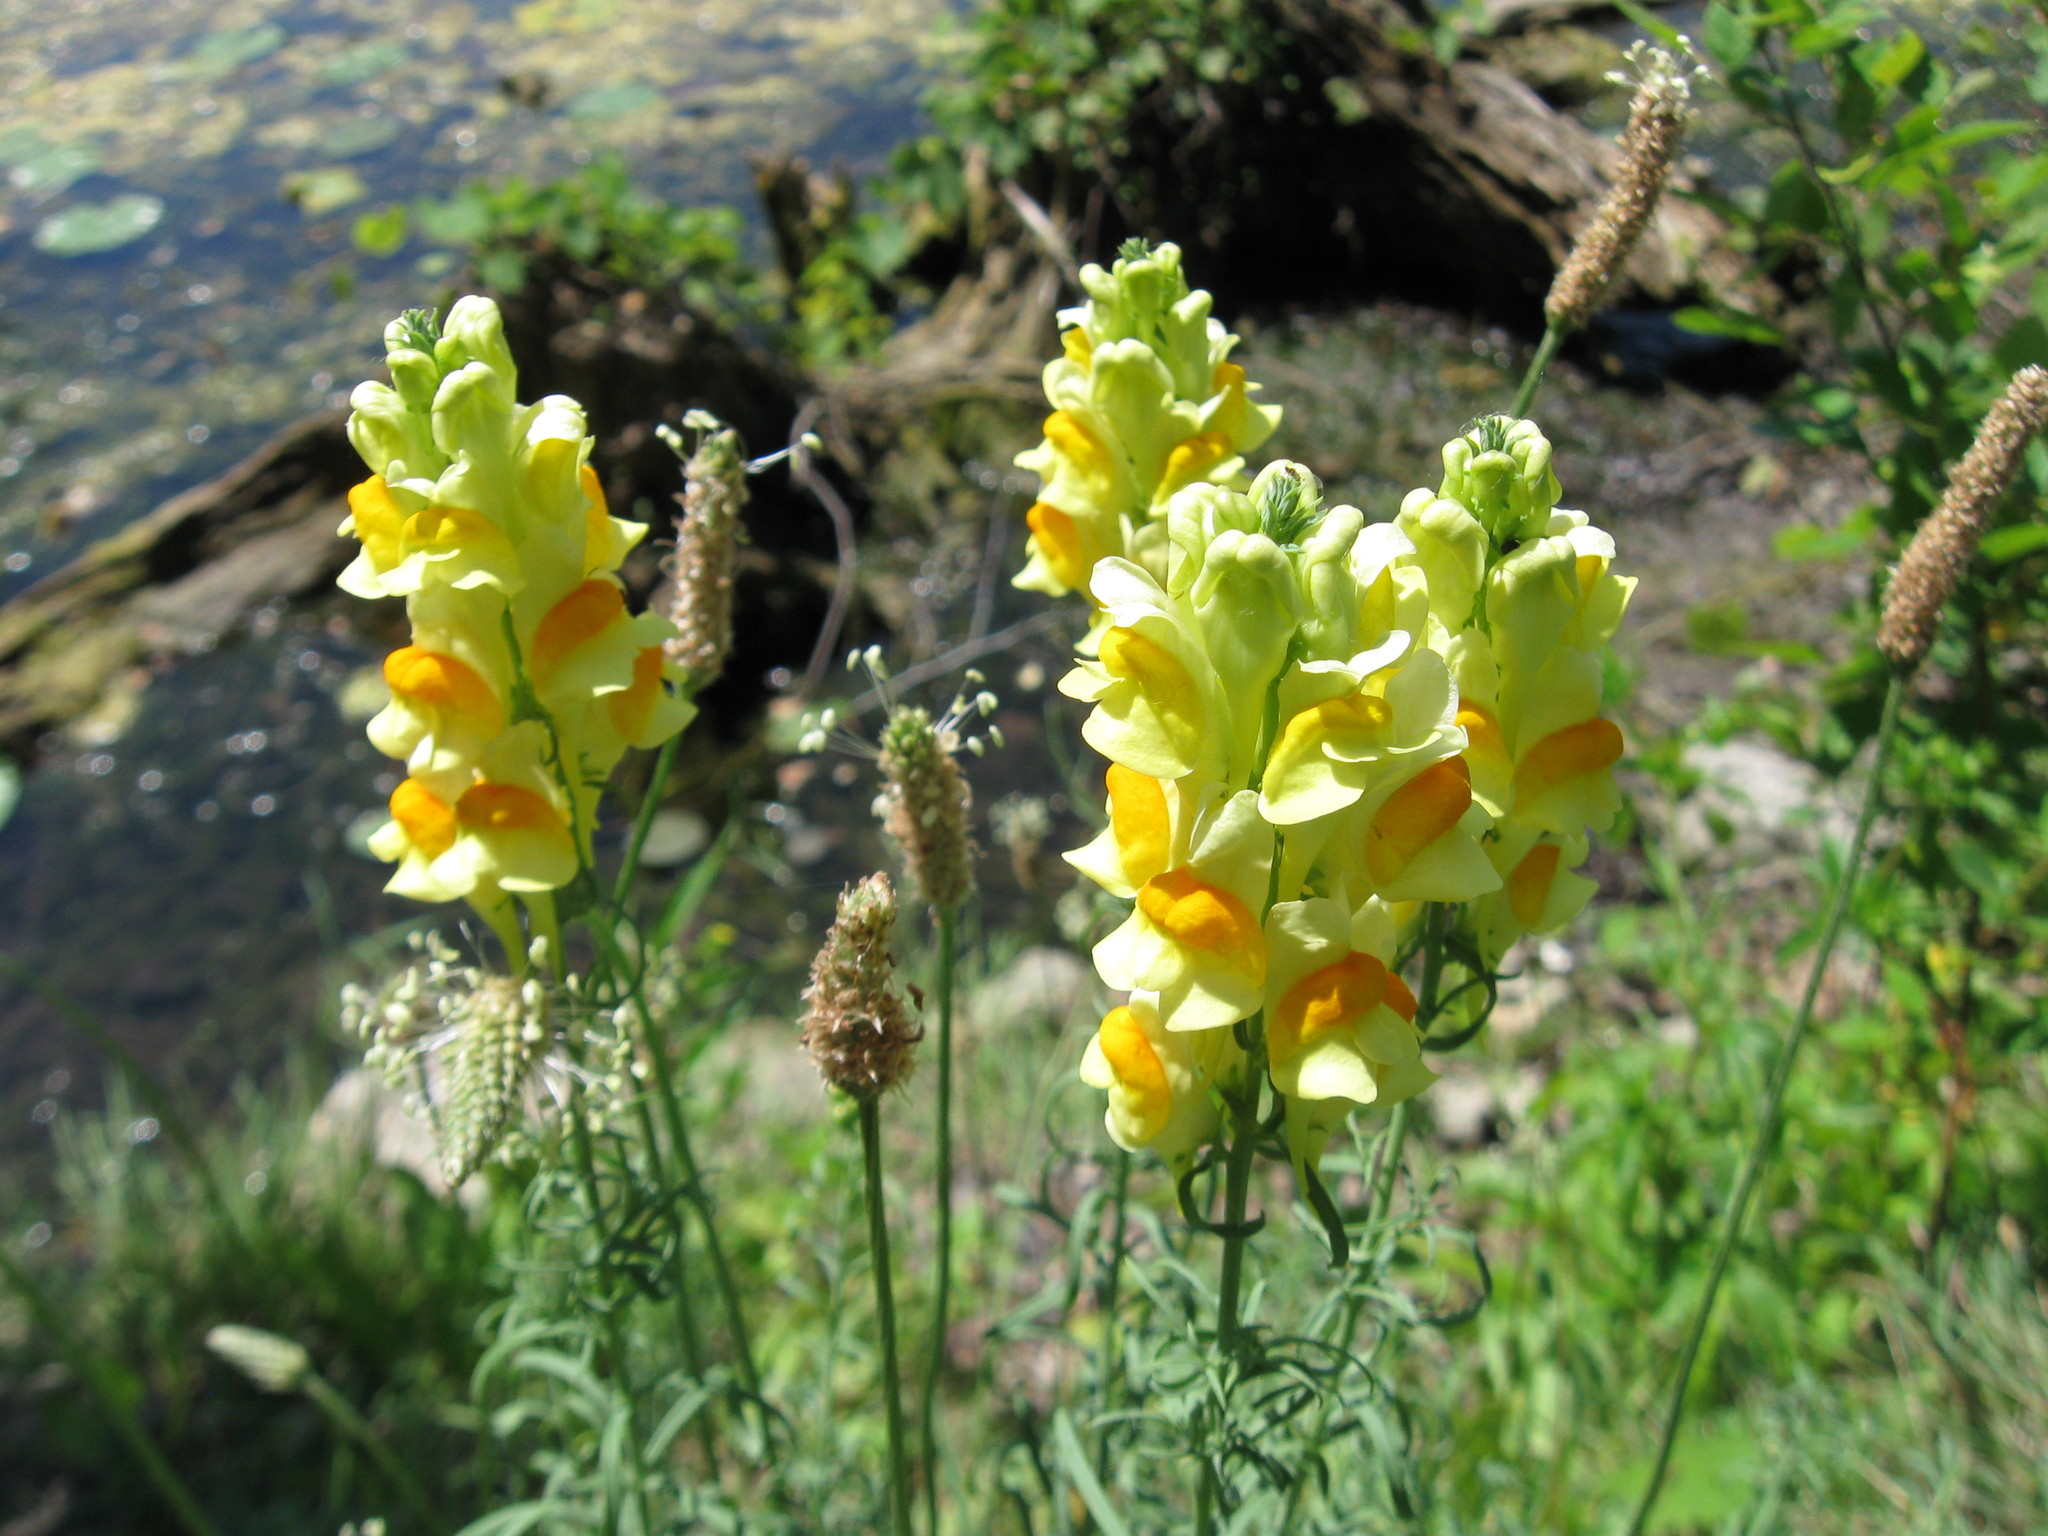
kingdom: Plantae
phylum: Tracheophyta
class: Magnoliopsida
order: Lamiales
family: Plantaginaceae
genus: Linaria
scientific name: Linaria vulgaris
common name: Butter and eggs
